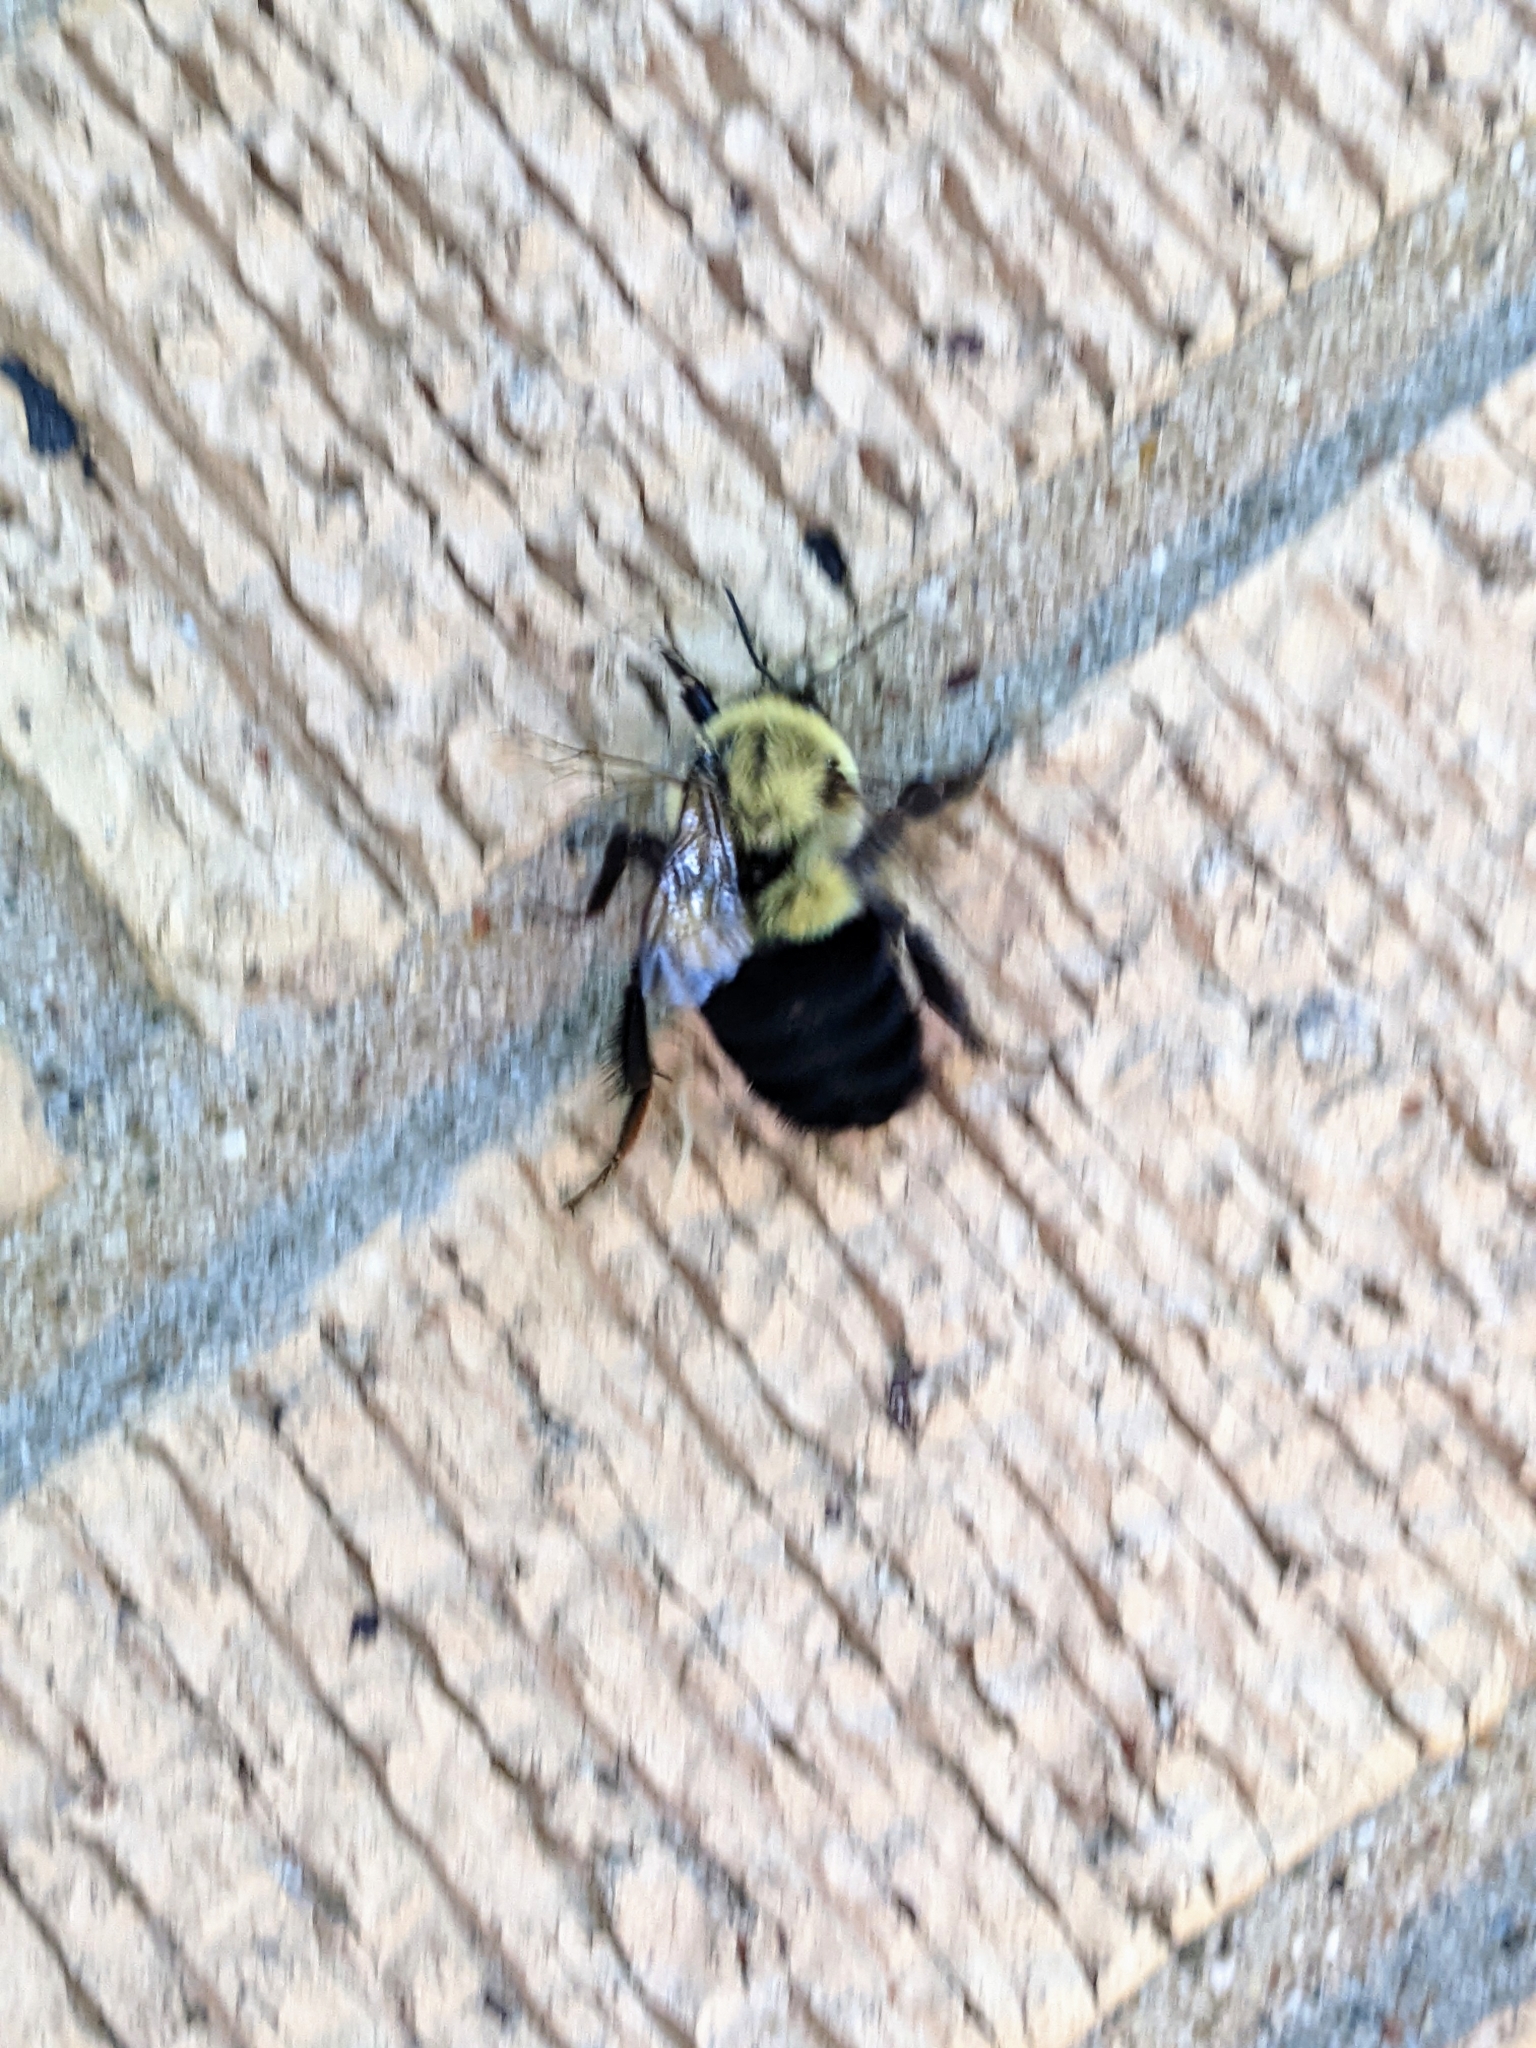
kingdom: Animalia
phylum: Arthropoda
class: Insecta
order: Hymenoptera
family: Apidae
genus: Bombus
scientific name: Bombus impatiens
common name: Common eastern bumble bee
